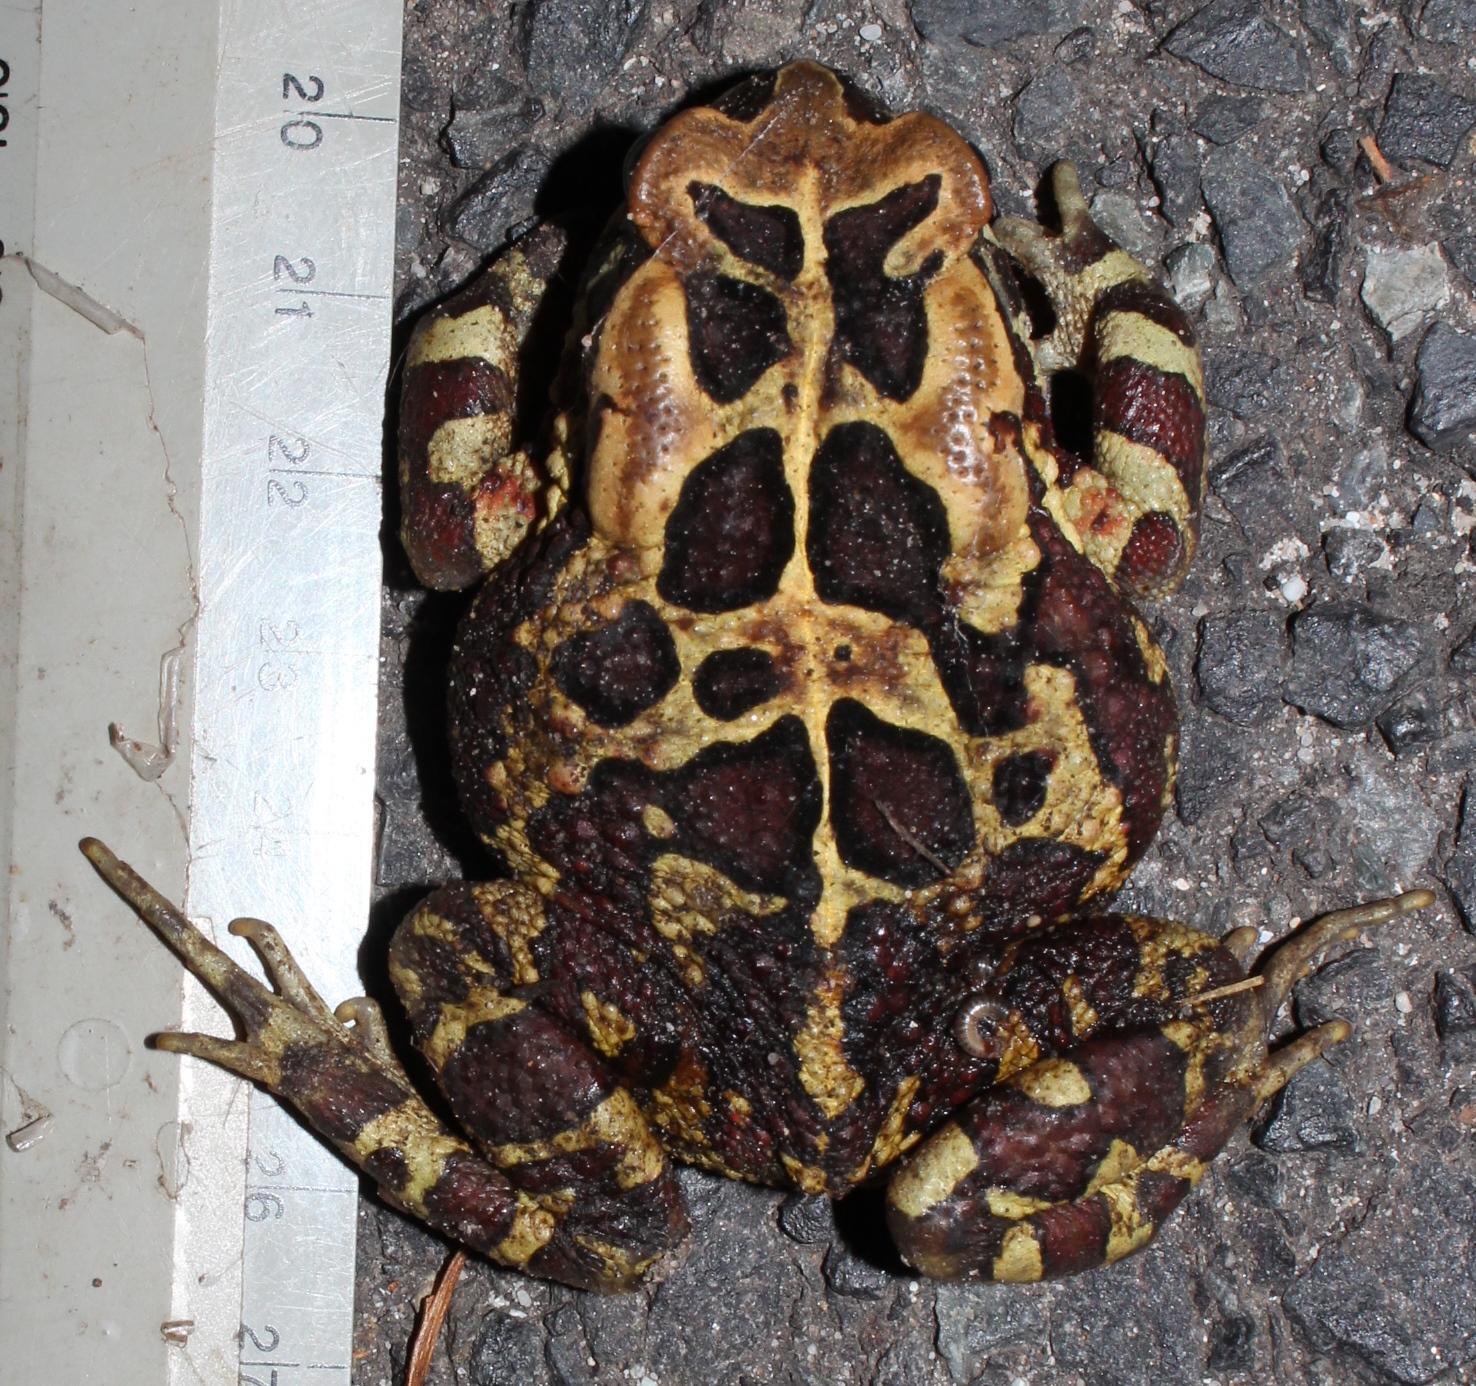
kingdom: Animalia
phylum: Chordata
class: Amphibia
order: Anura
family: Bufonidae
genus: Sclerophrys
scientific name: Sclerophrys pantherina
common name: Panther toad
